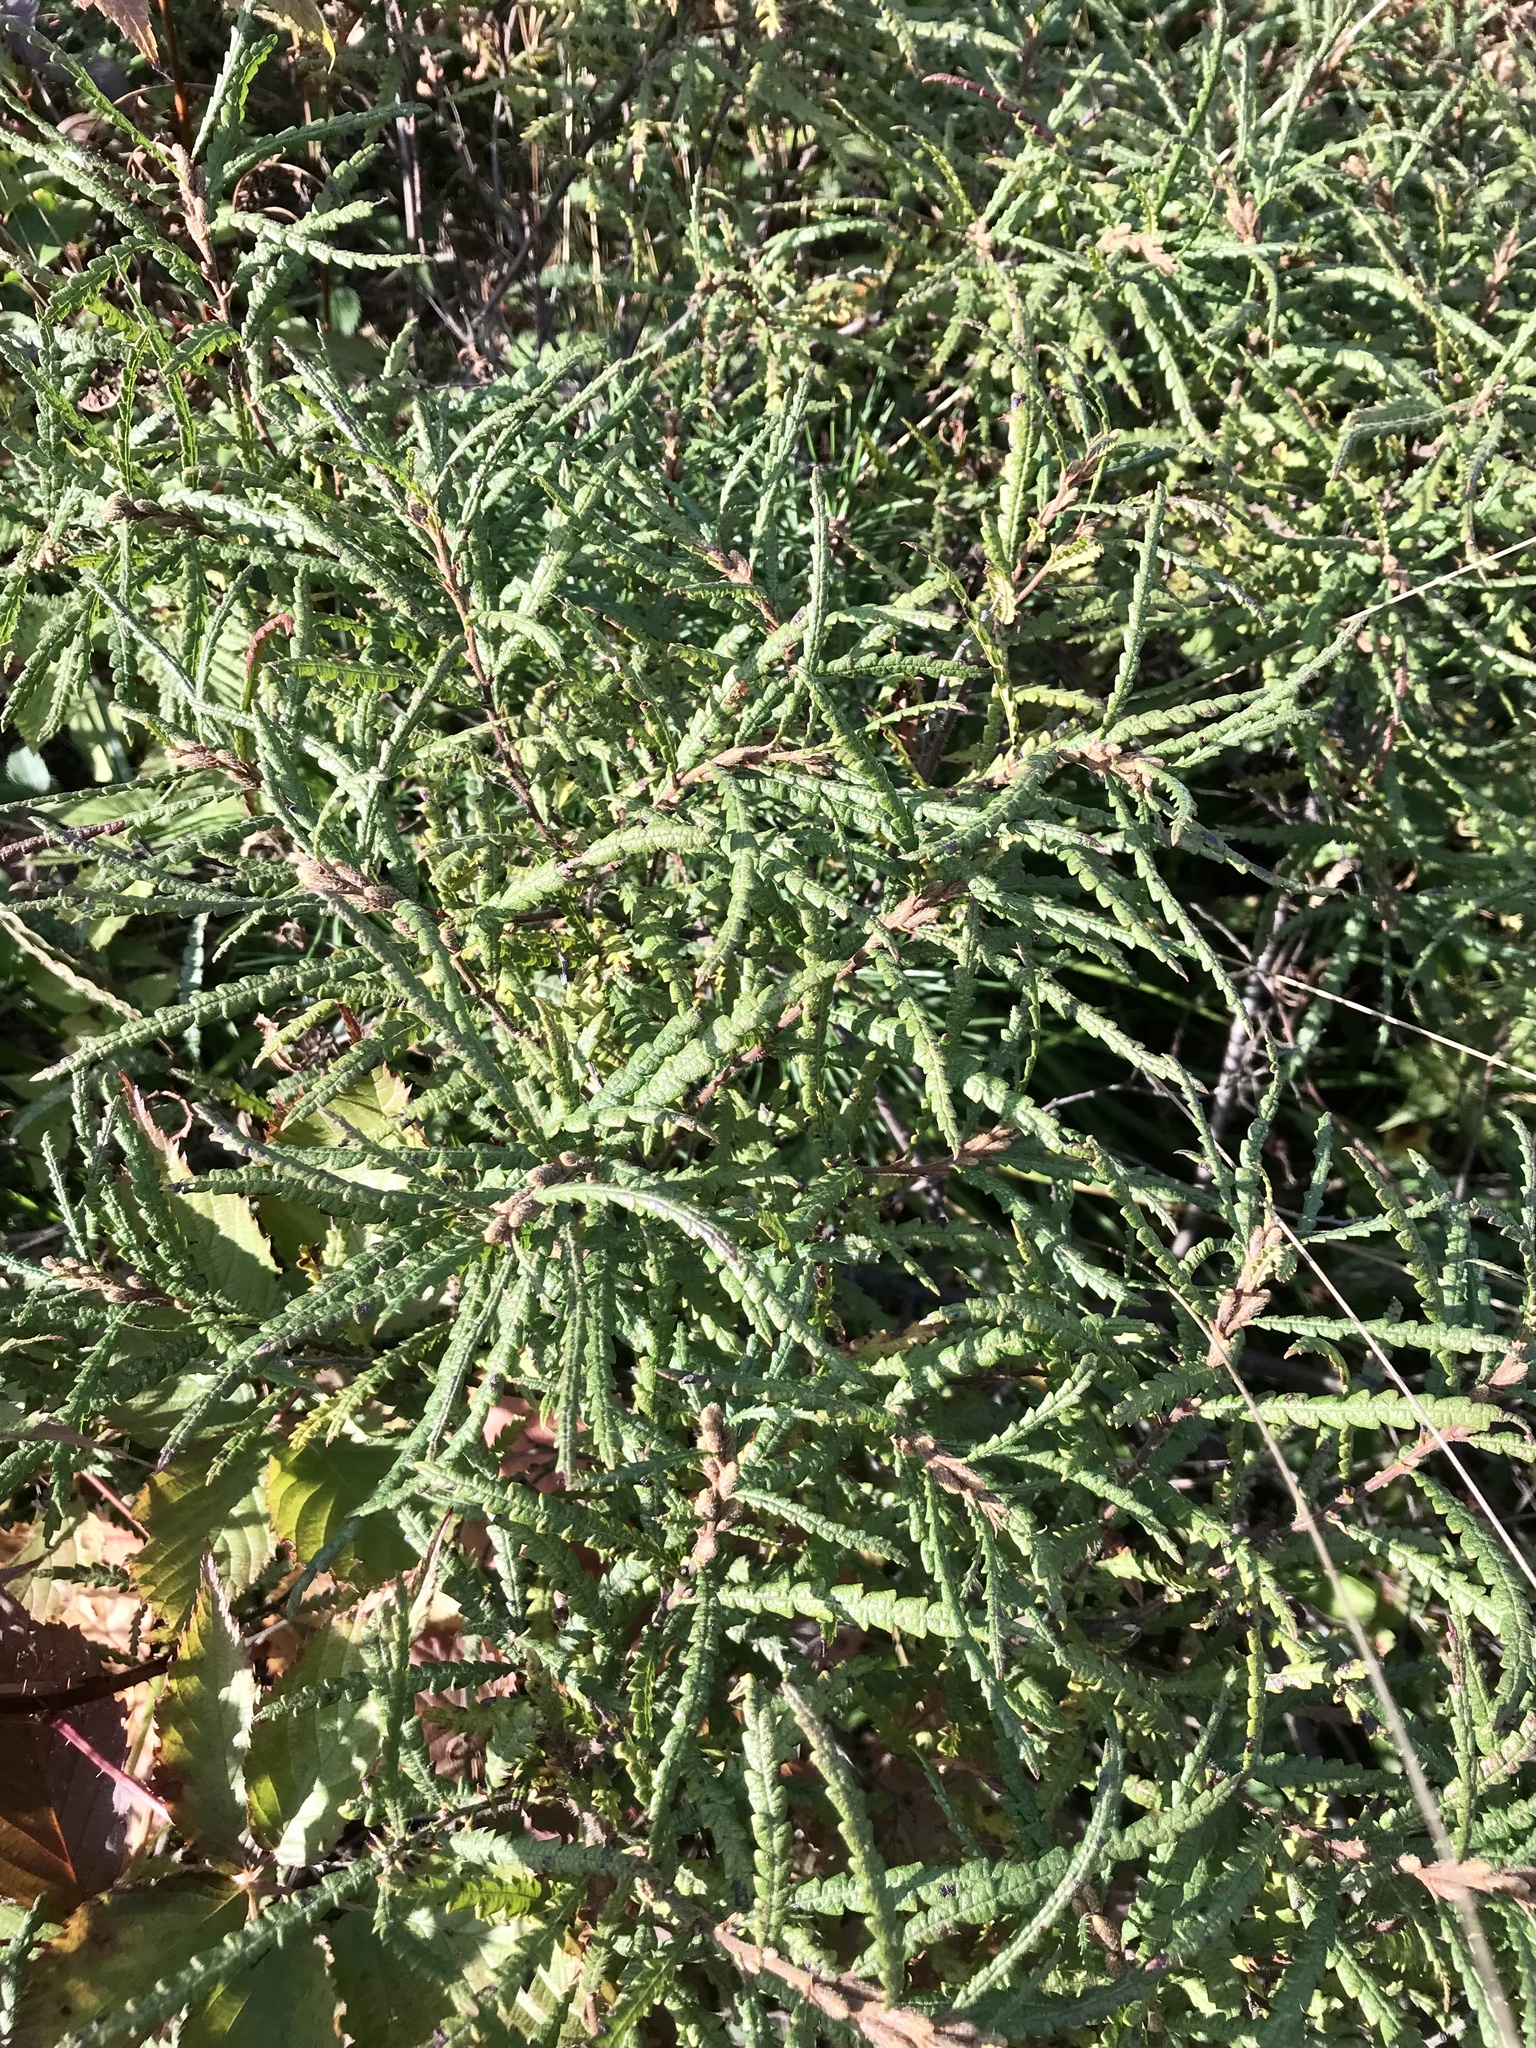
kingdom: Plantae
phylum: Tracheophyta
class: Magnoliopsida
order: Fagales
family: Myricaceae
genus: Comptonia
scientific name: Comptonia peregrina
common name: Sweet-fern
